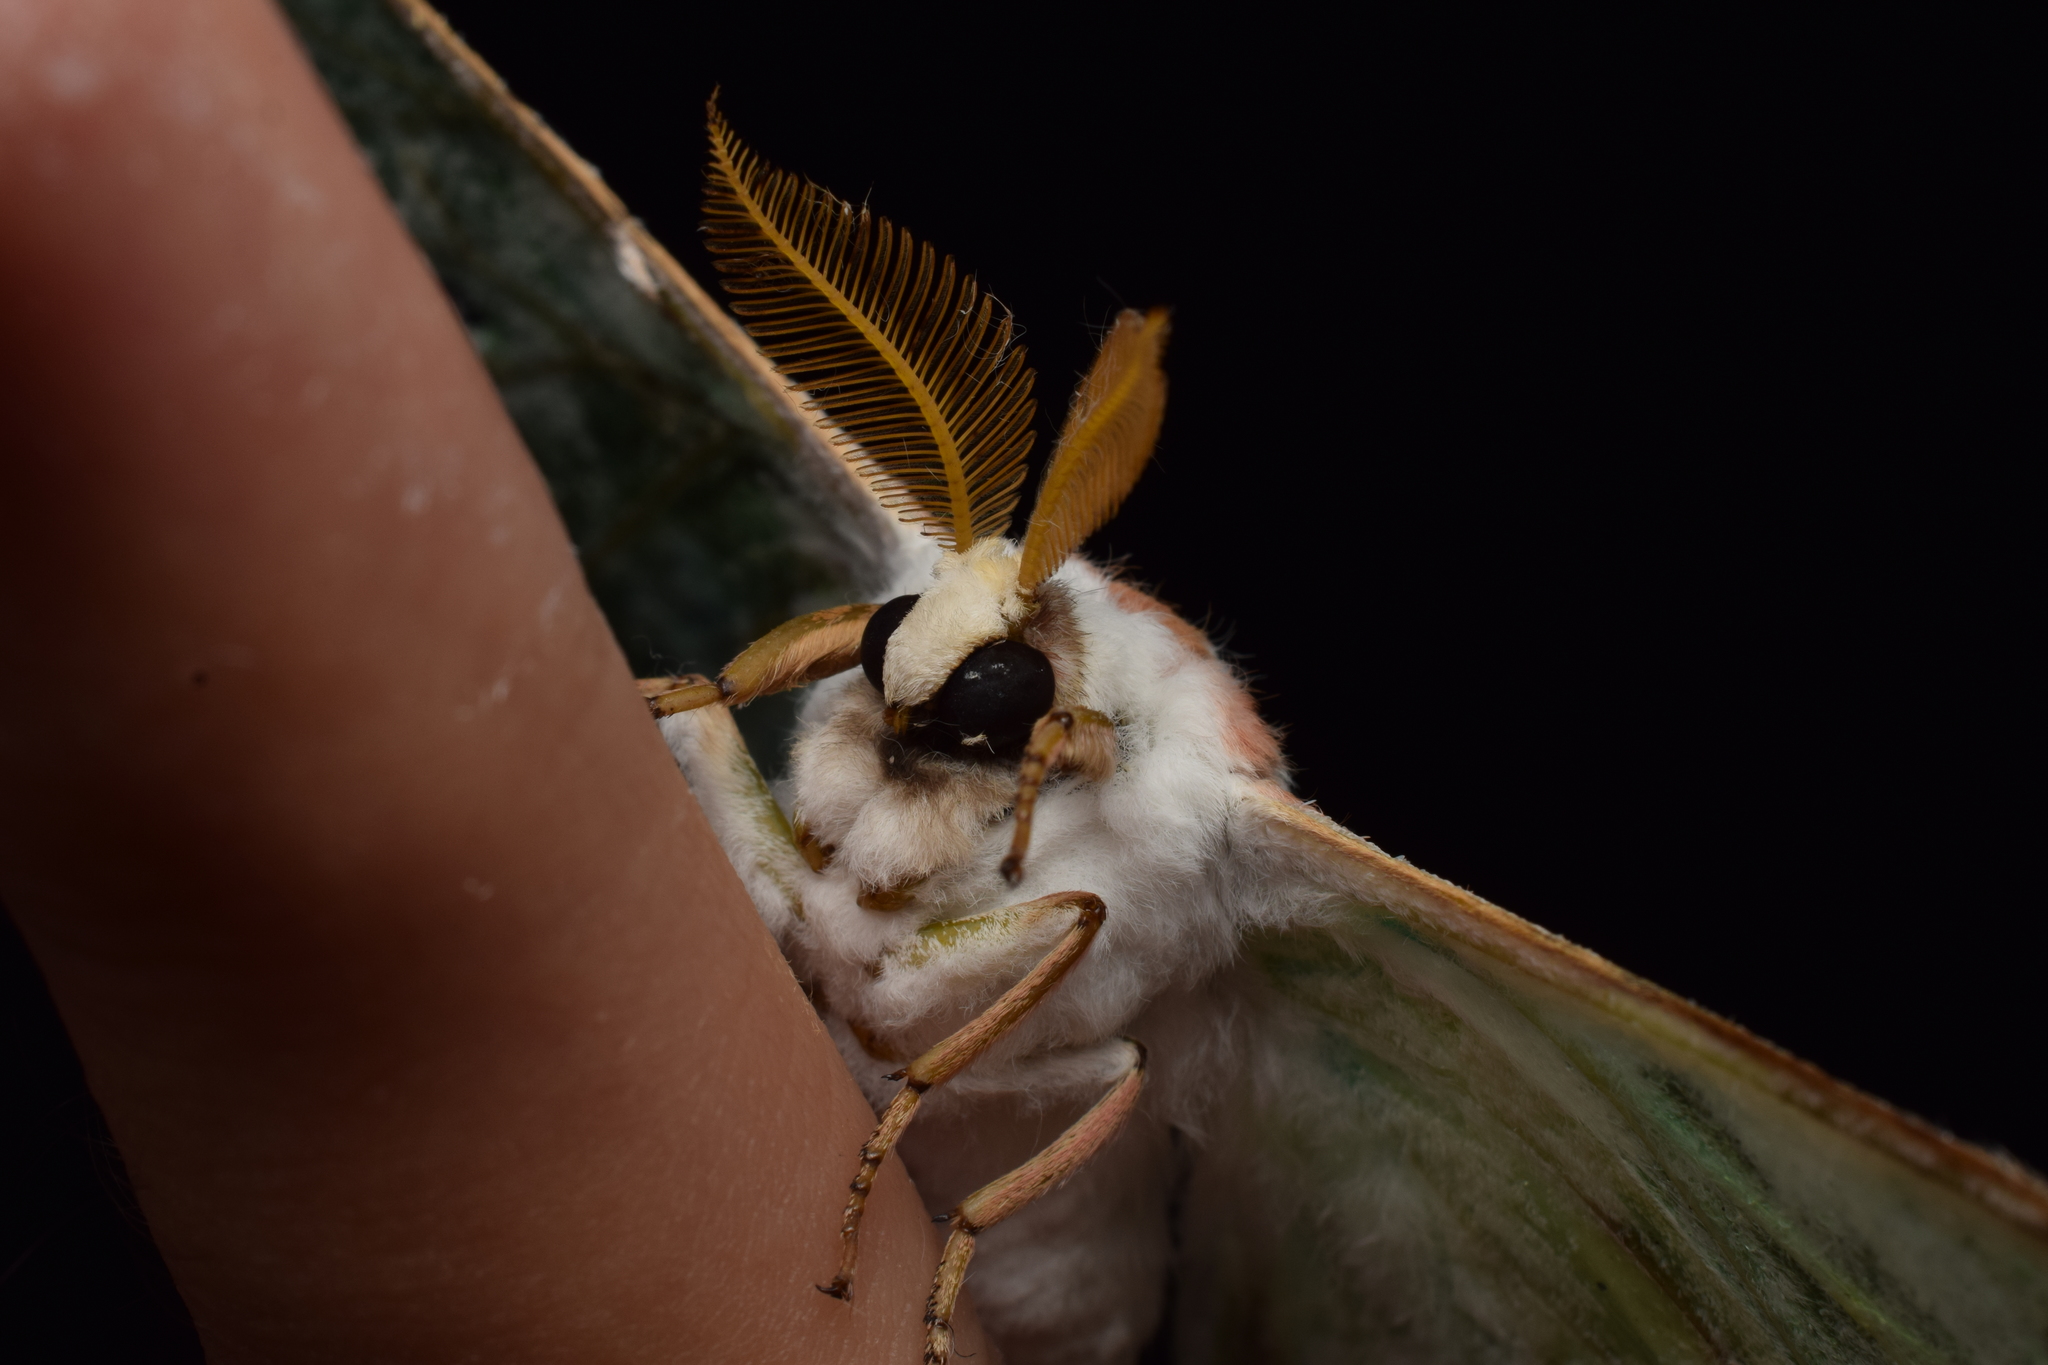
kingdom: Animalia
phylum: Arthropoda
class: Insecta
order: Lepidoptera
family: Saturniidae
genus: Actias
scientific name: Actias aliena
